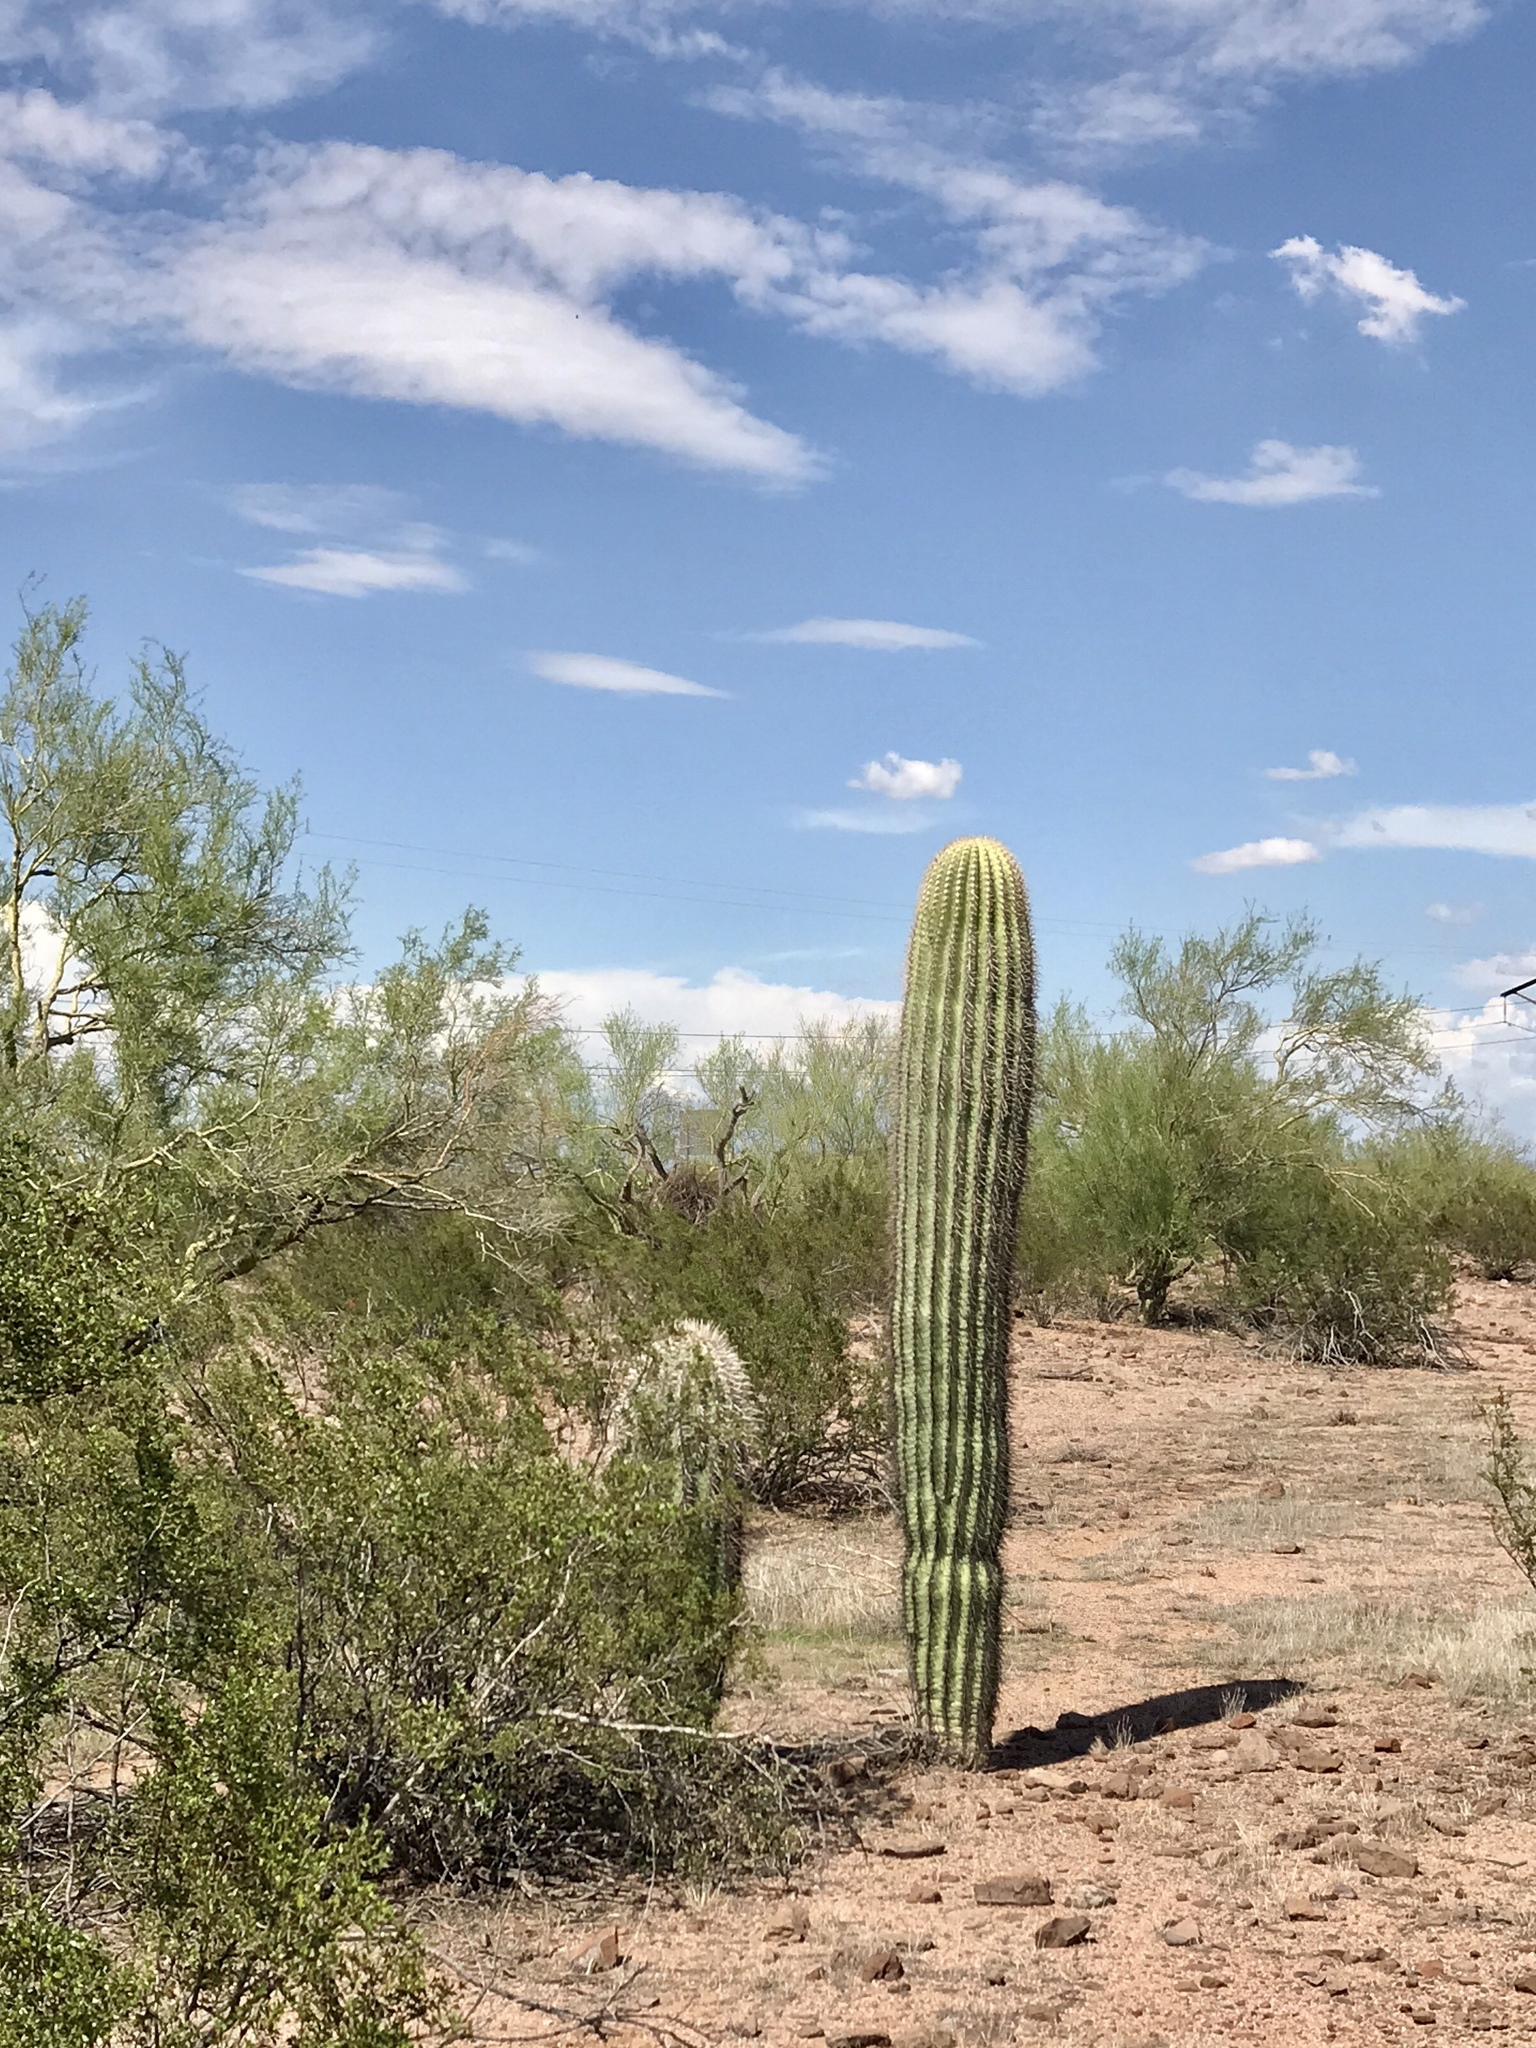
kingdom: Plantae
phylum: Tracheophyta
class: Magnoliopsida
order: Caryophyllales
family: Cactaceae
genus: Carnegiea
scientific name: Carnegiea gigantea
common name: Saguaro
